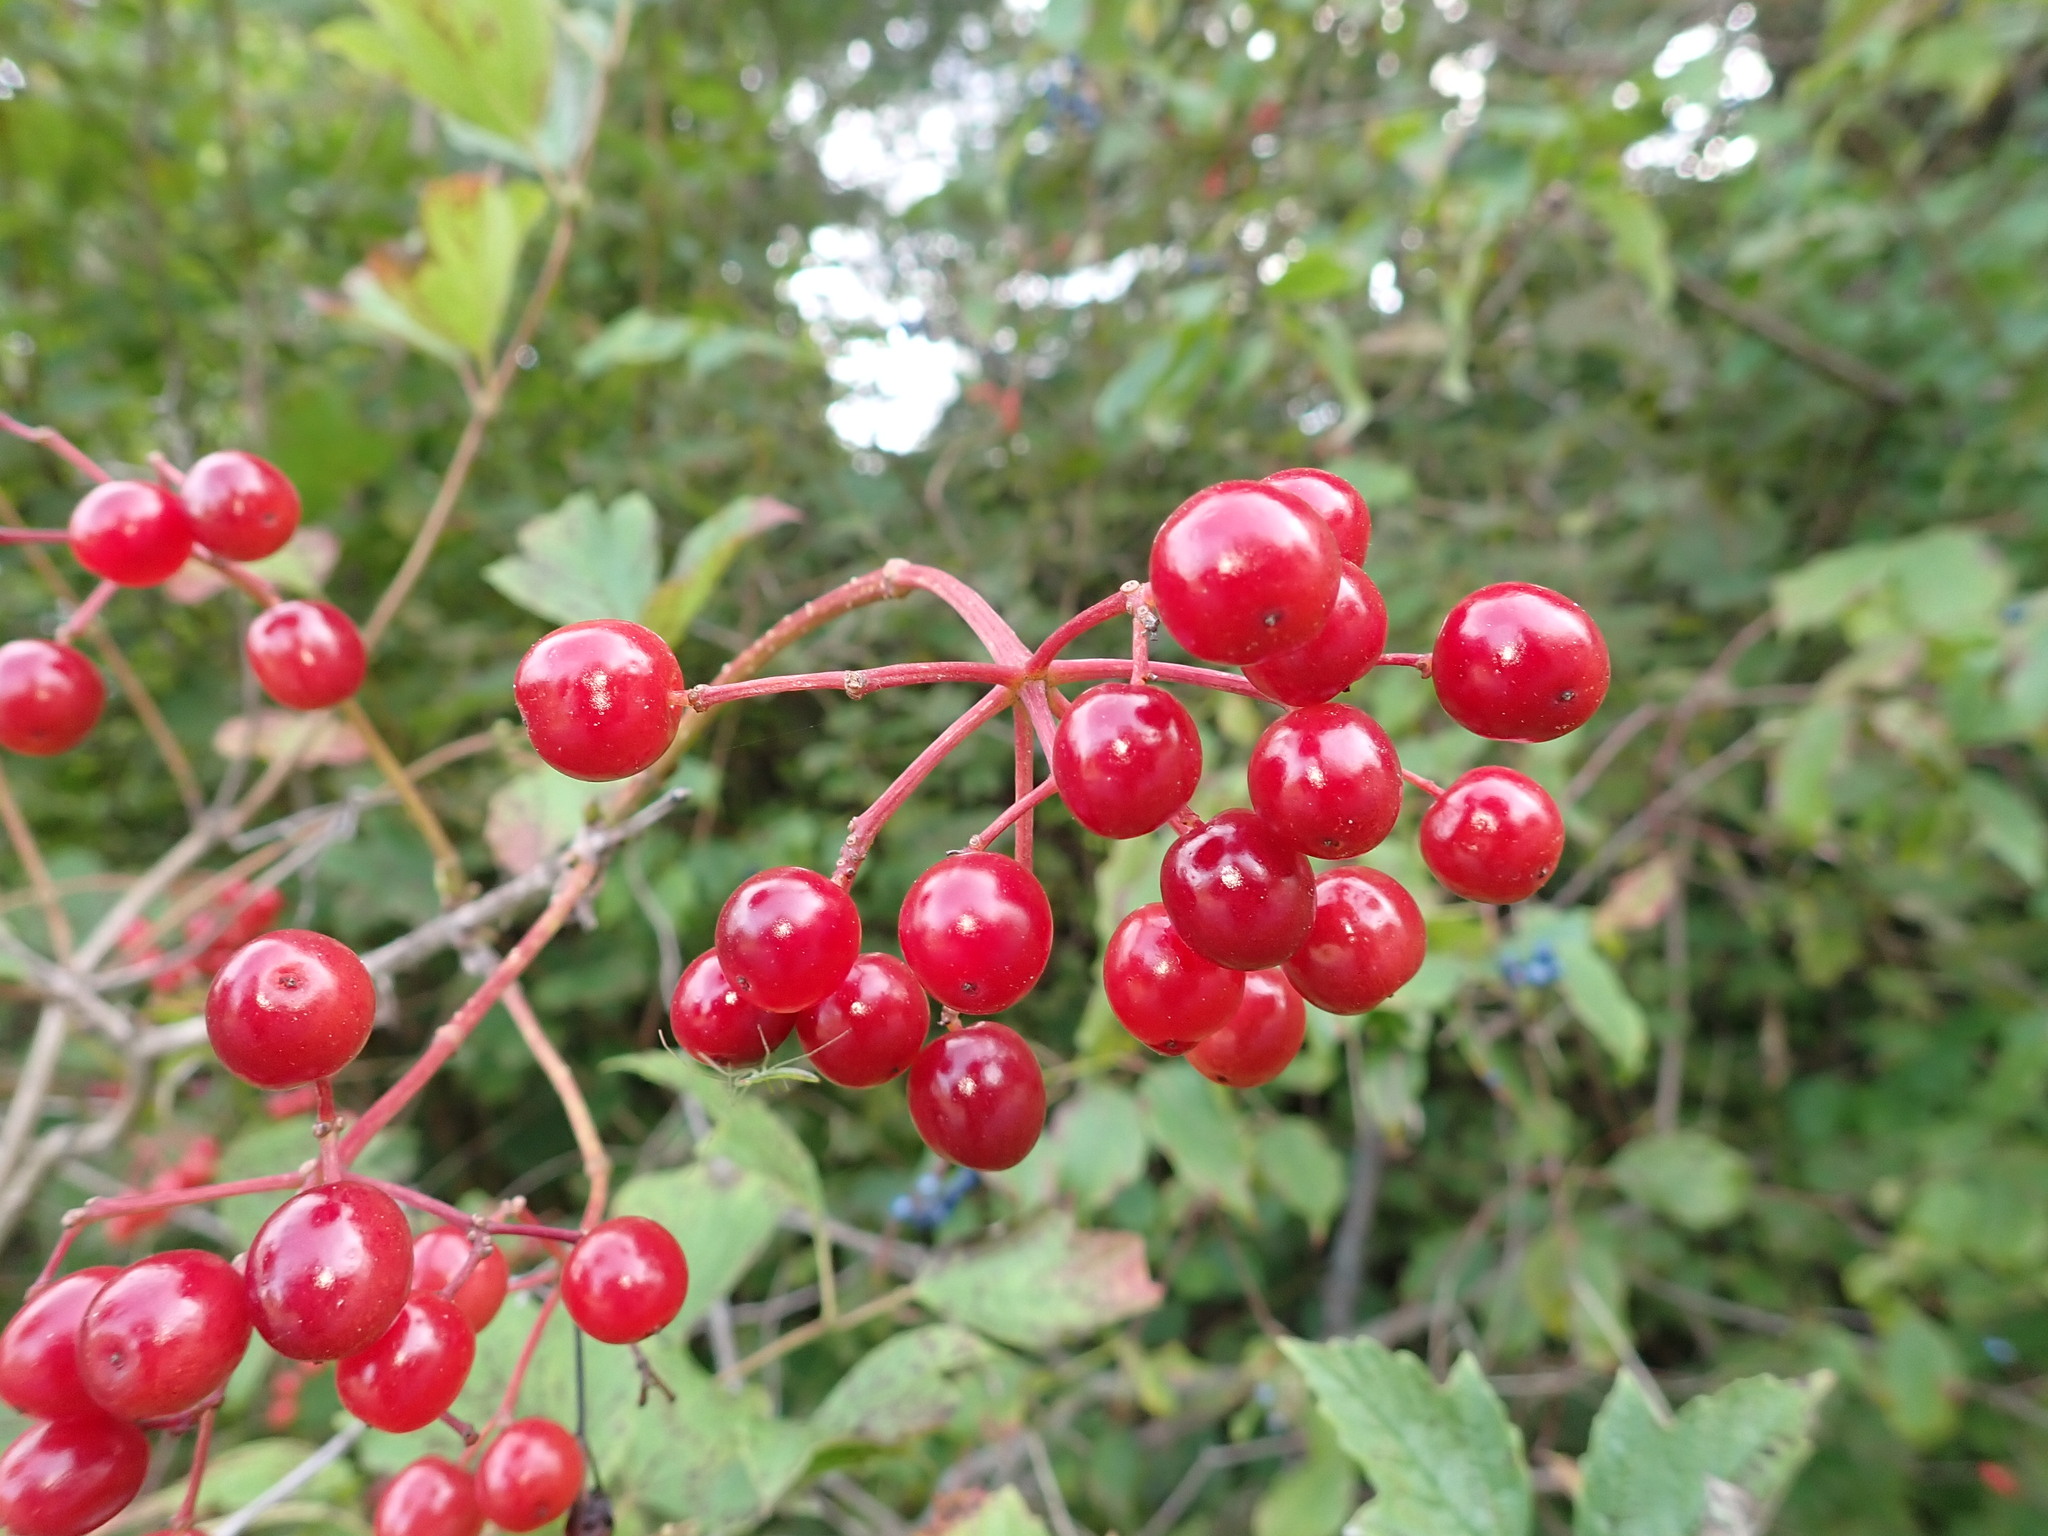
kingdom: Plantae
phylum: Tracheophyta
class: Magnoliopsida
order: Dipsacales
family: Viburnaceae
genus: Viburnum
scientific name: Viburnum opulus
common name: Guelder-rose
